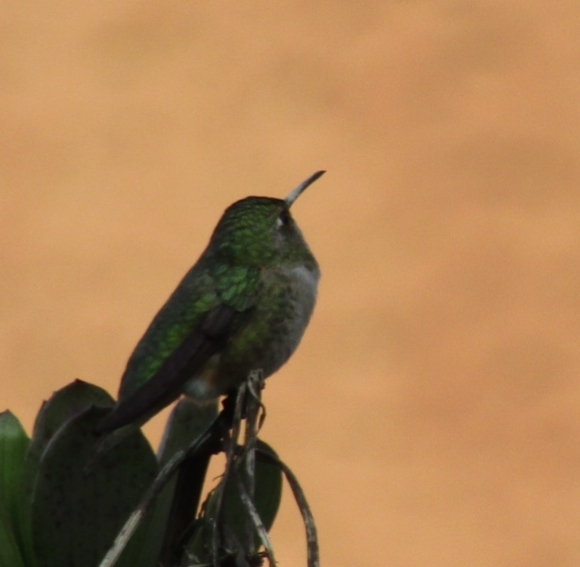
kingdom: Animalia
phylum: Chordata
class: Aves
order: Apodiformes
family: Trochilidae
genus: Calypte
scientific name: Calypte anna
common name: Anna's hummingbird
